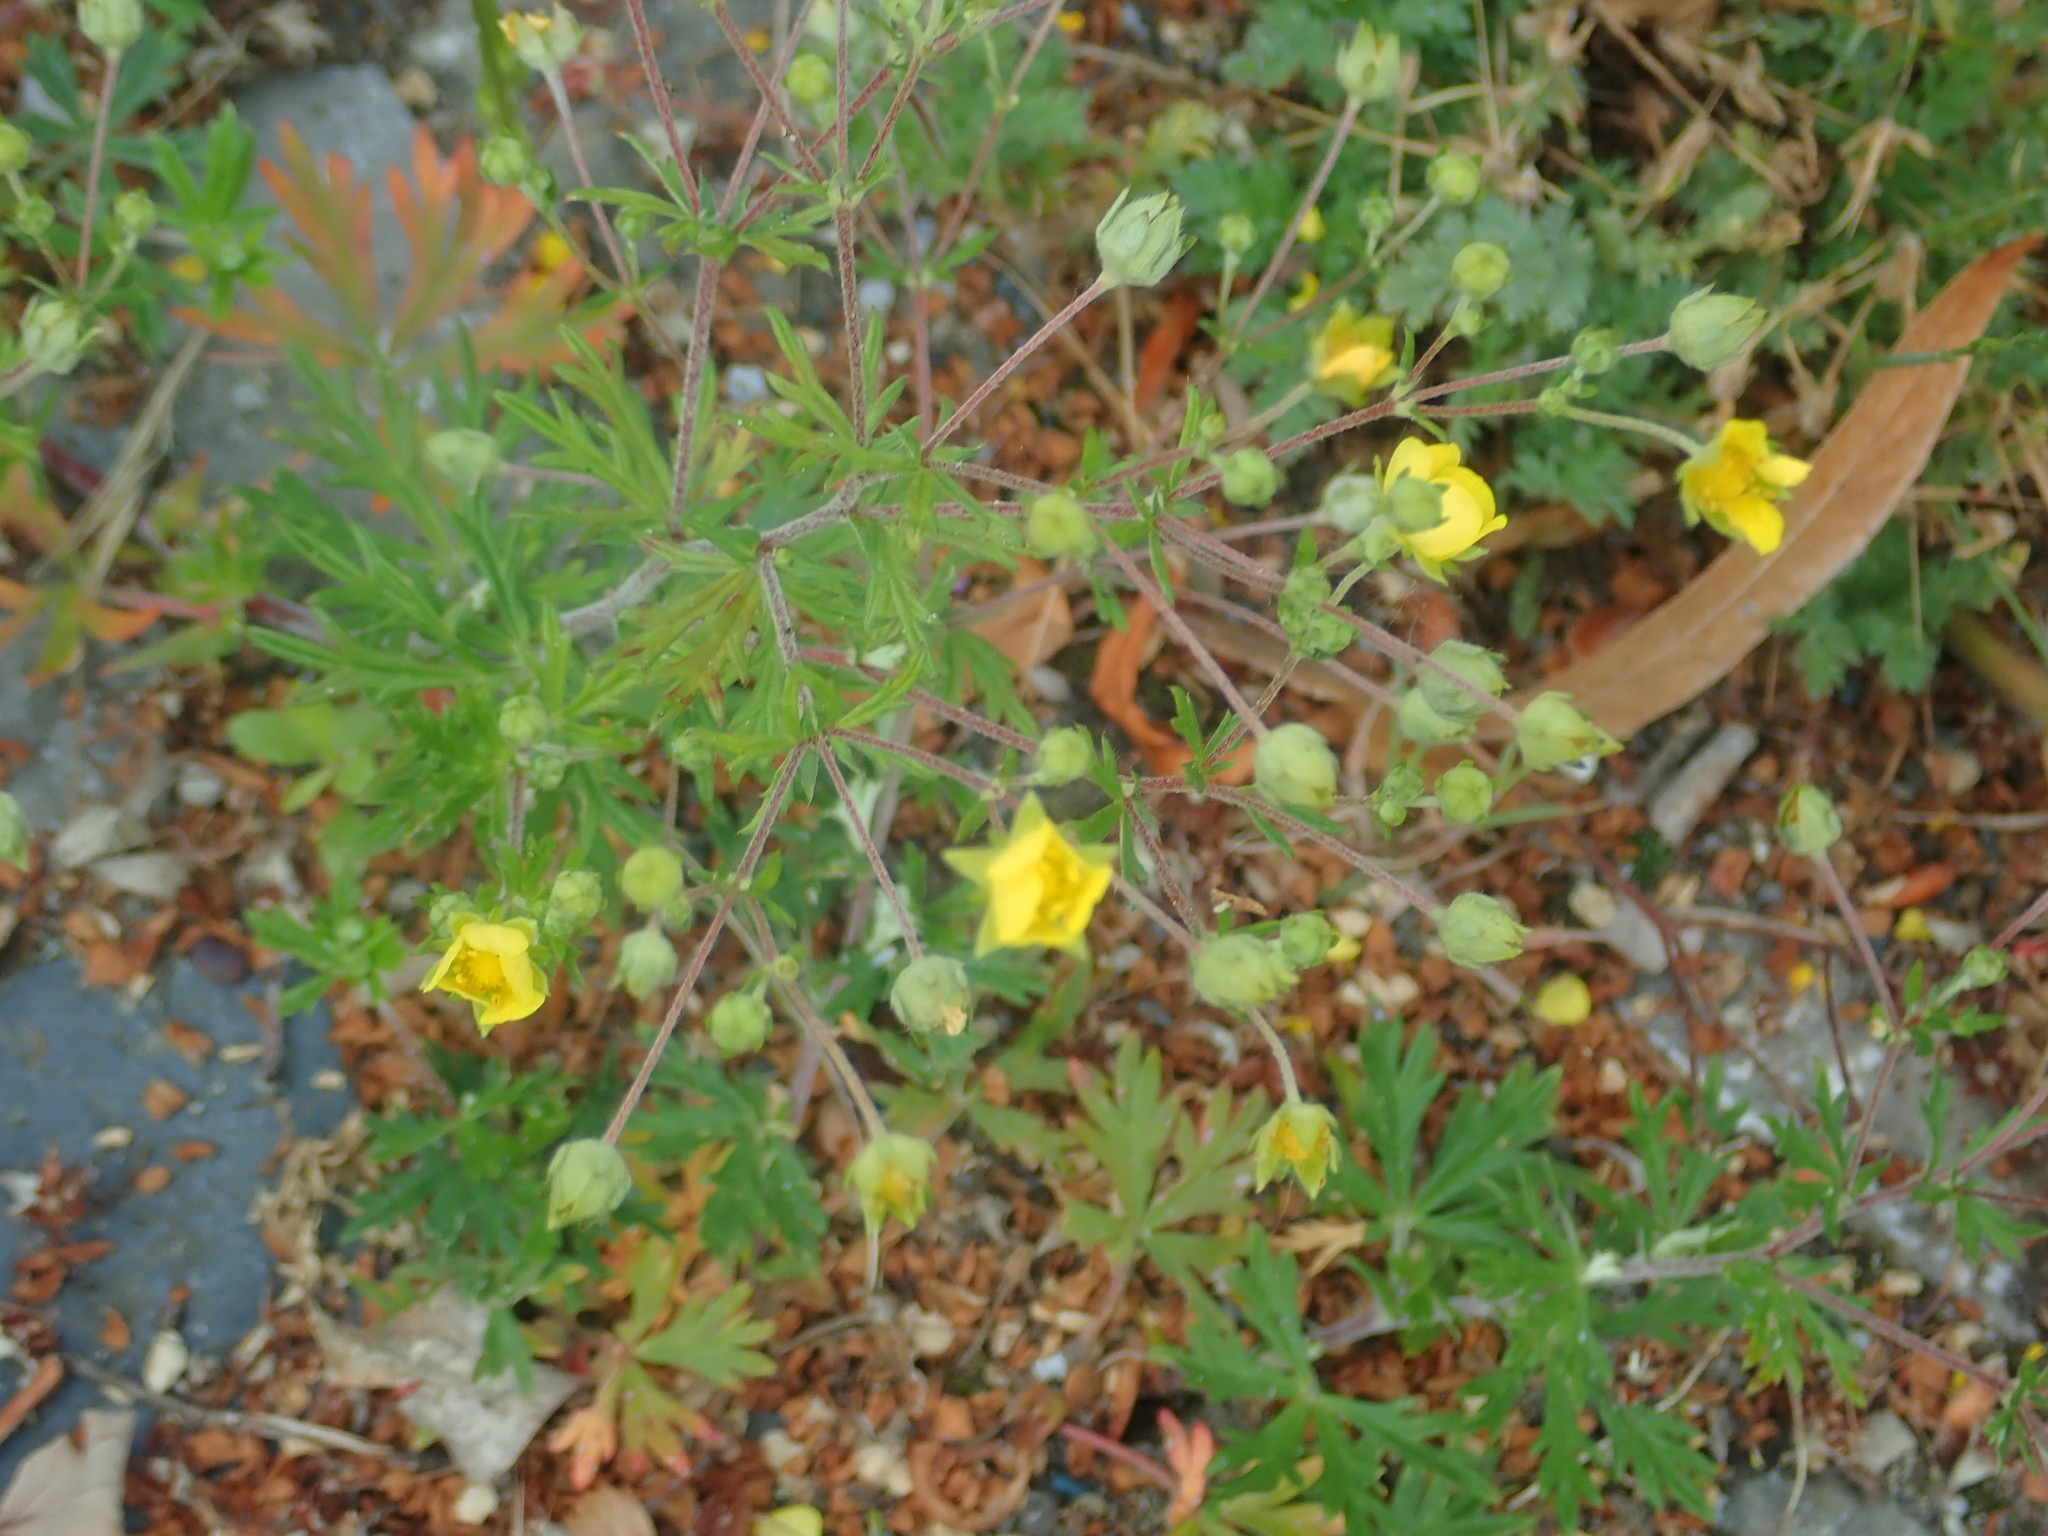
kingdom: Plantae
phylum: Tracheophyta
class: Magnoliopsida
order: Rosales
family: Rosaceae
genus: Potentilla
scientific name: Potentilla argentea
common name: Hoary cinquefoil
